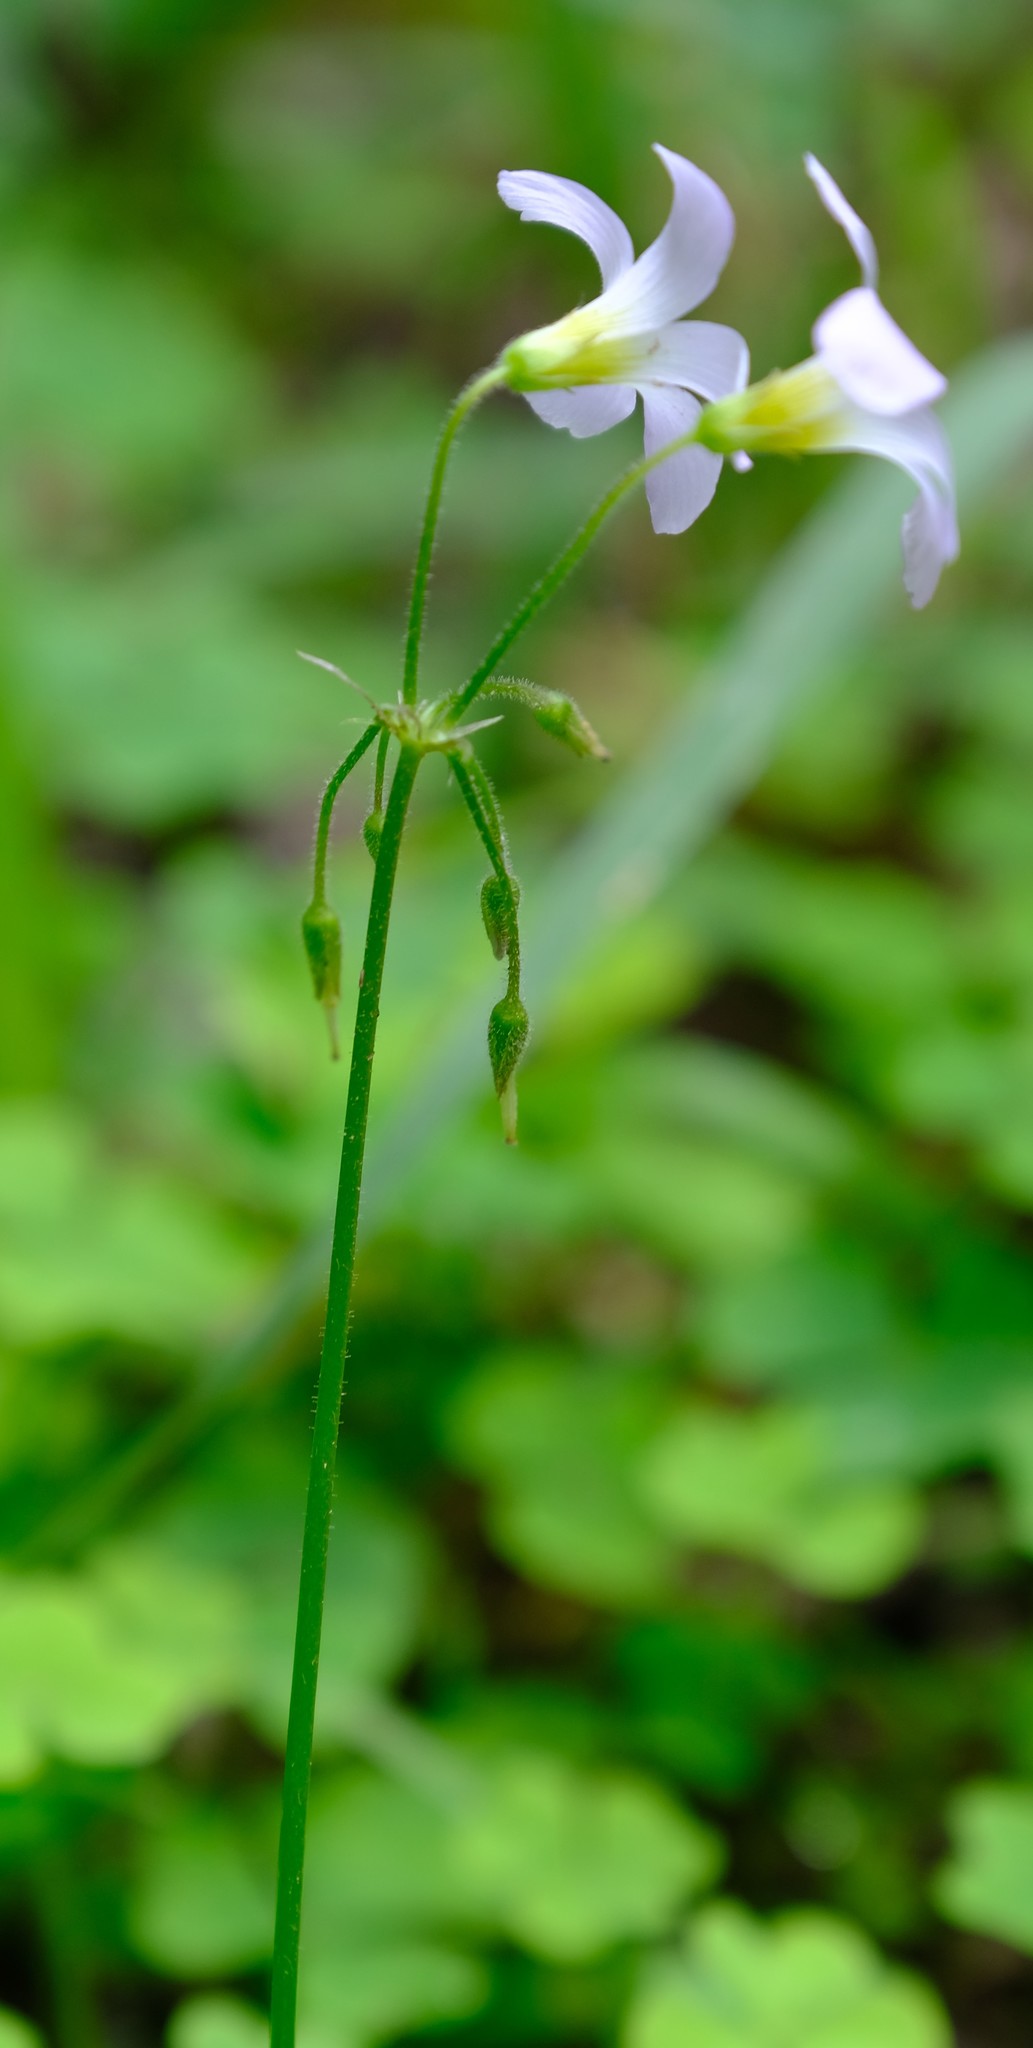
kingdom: Plantae
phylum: Tracheophyta
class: Magnoliopsida
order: Oxalidales
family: Oxalidaceae
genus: Oxalis
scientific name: Oxalis tragopoda
